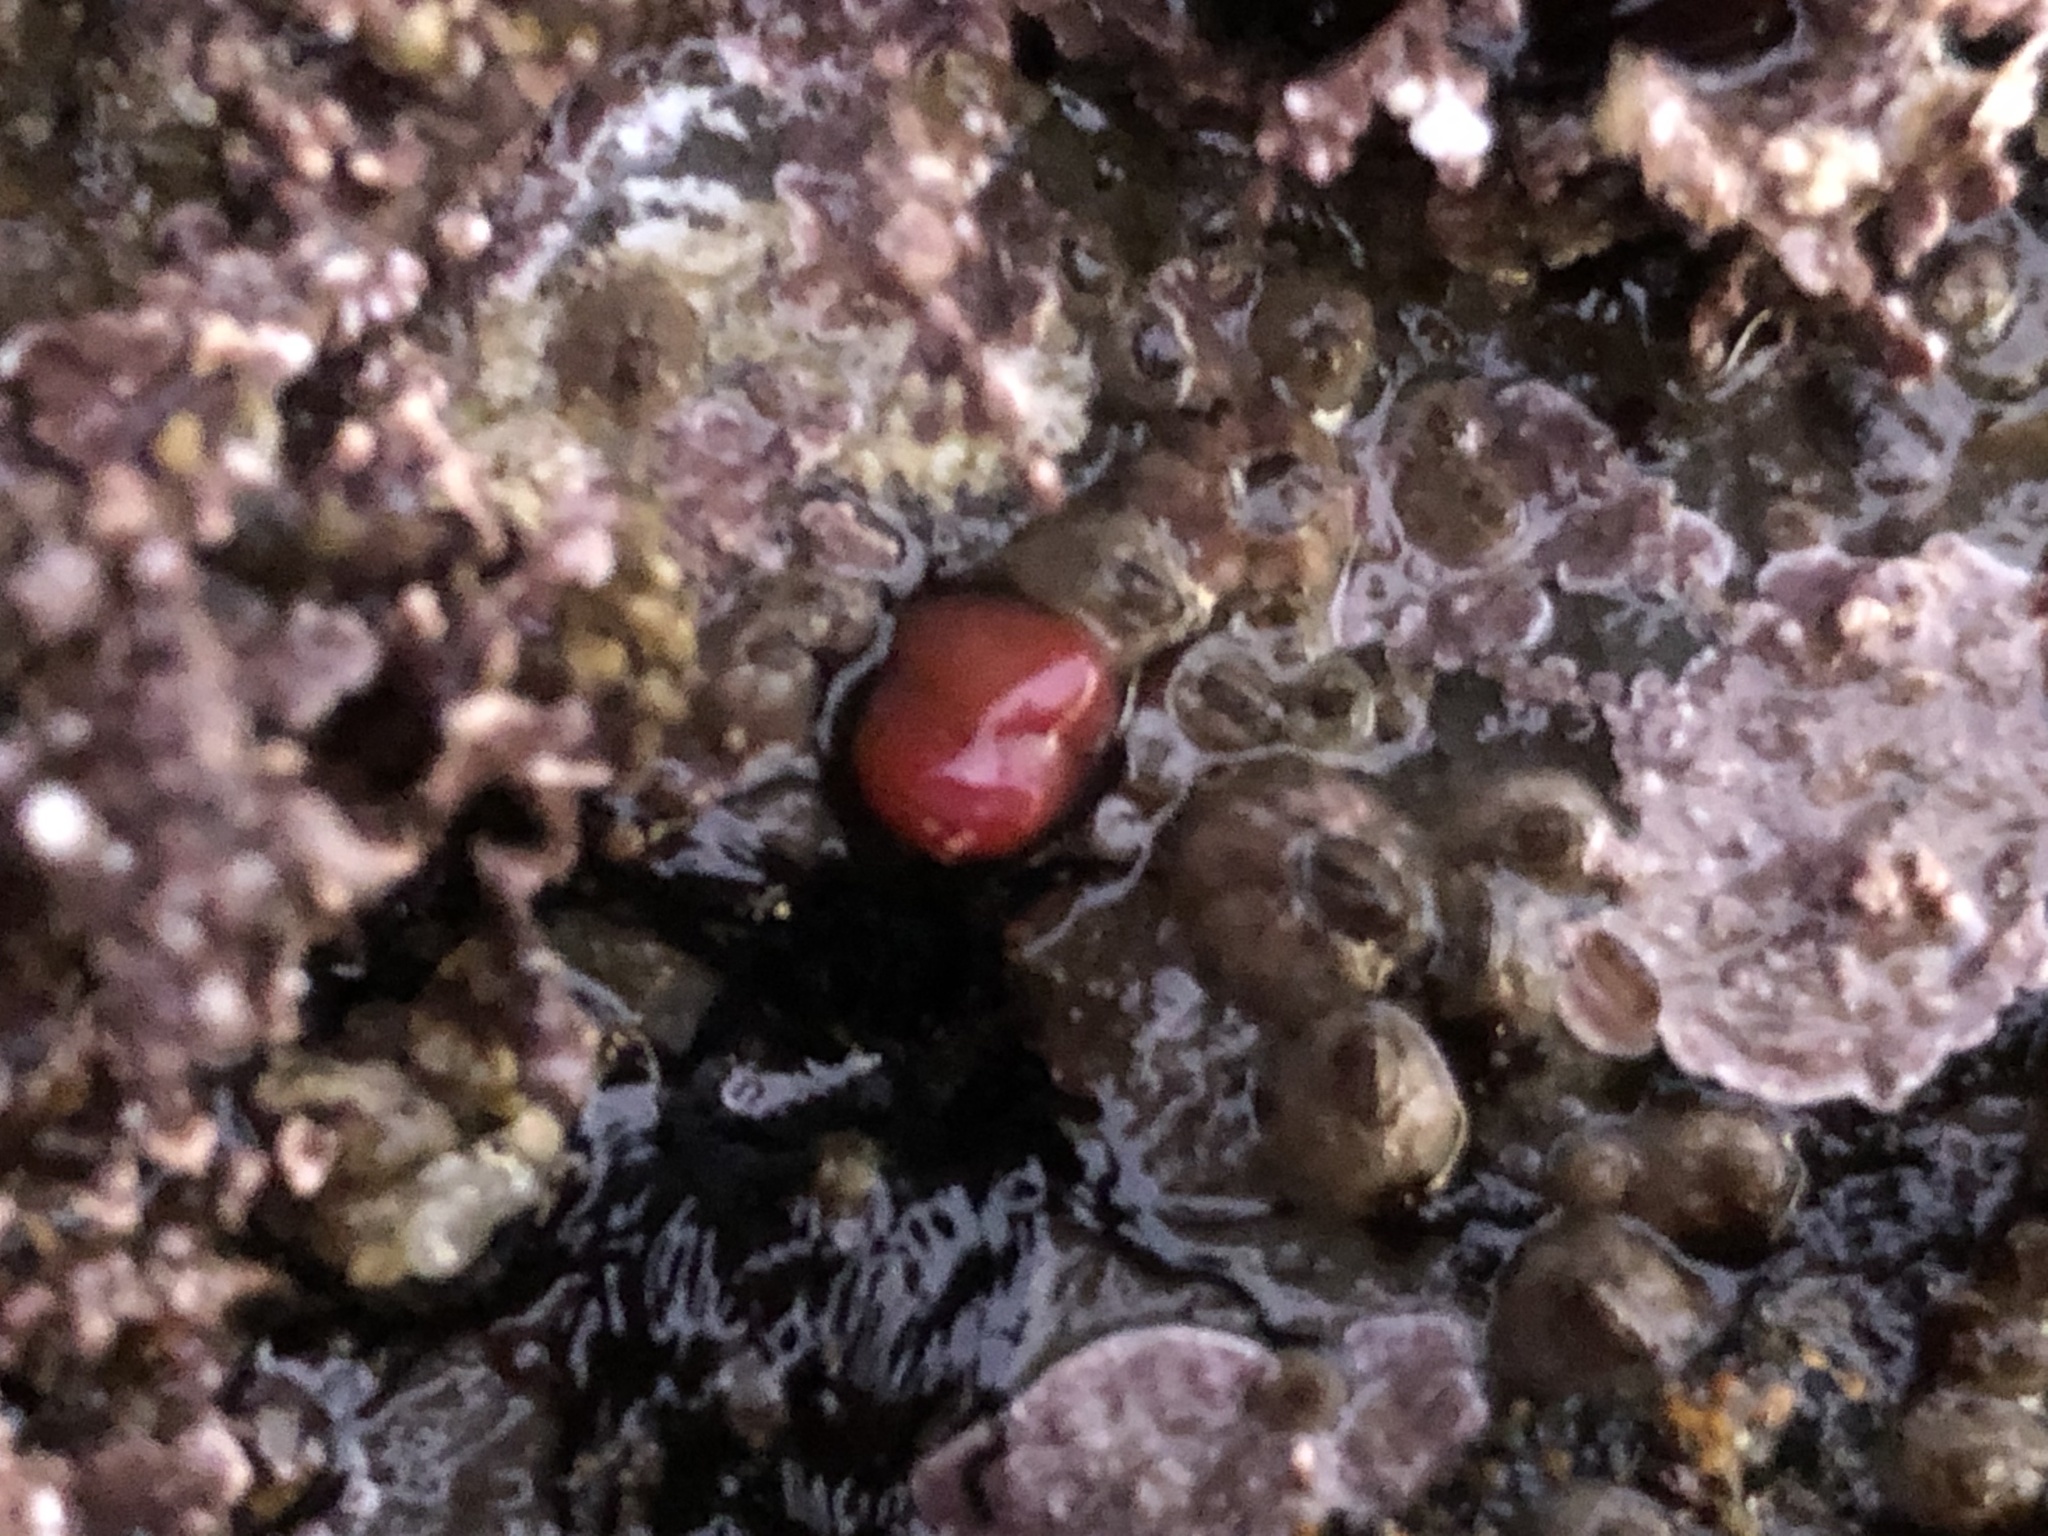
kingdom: Animalia
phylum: Mollusca
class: Bivalvia
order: Adapedonta
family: Hiatellidae
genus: Hiatella
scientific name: Hiatella arctica
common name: Arctic hiatella
